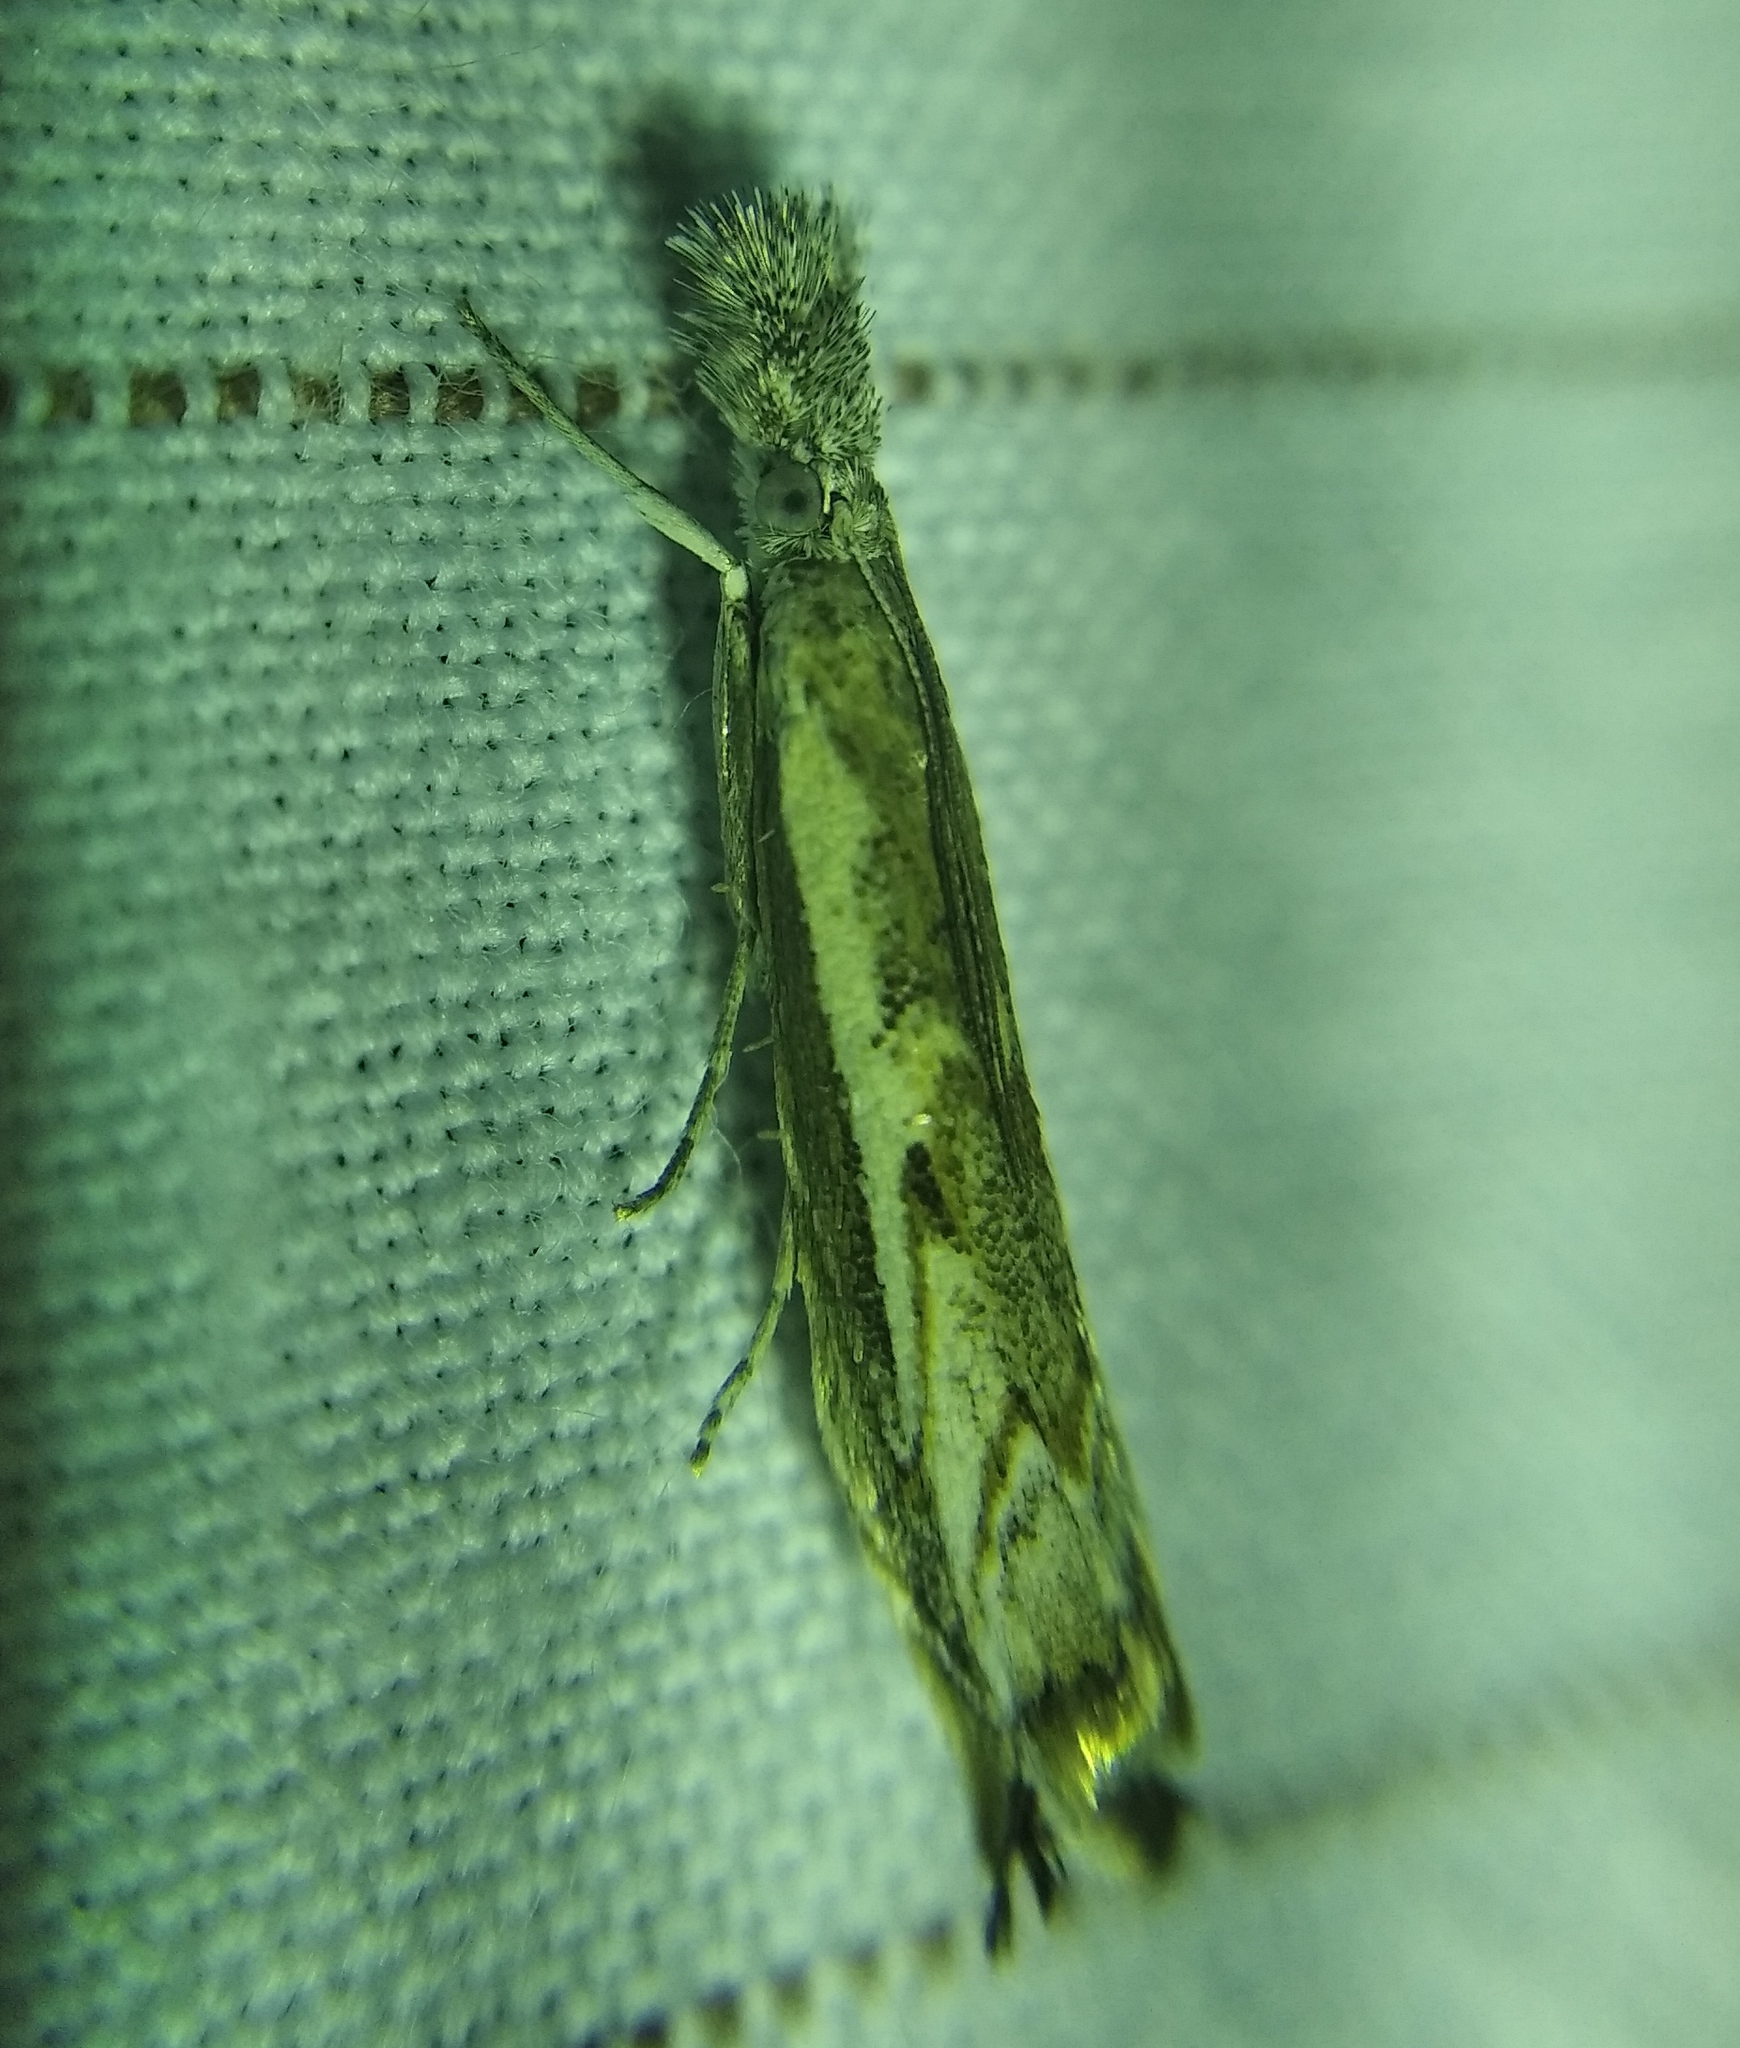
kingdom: Animalia
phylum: Arthropoda
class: Insecta
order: Lepidoptera
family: Crambidae
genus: Platytes
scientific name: Platytes alpinella
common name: Hook-tipped grass-veneer
